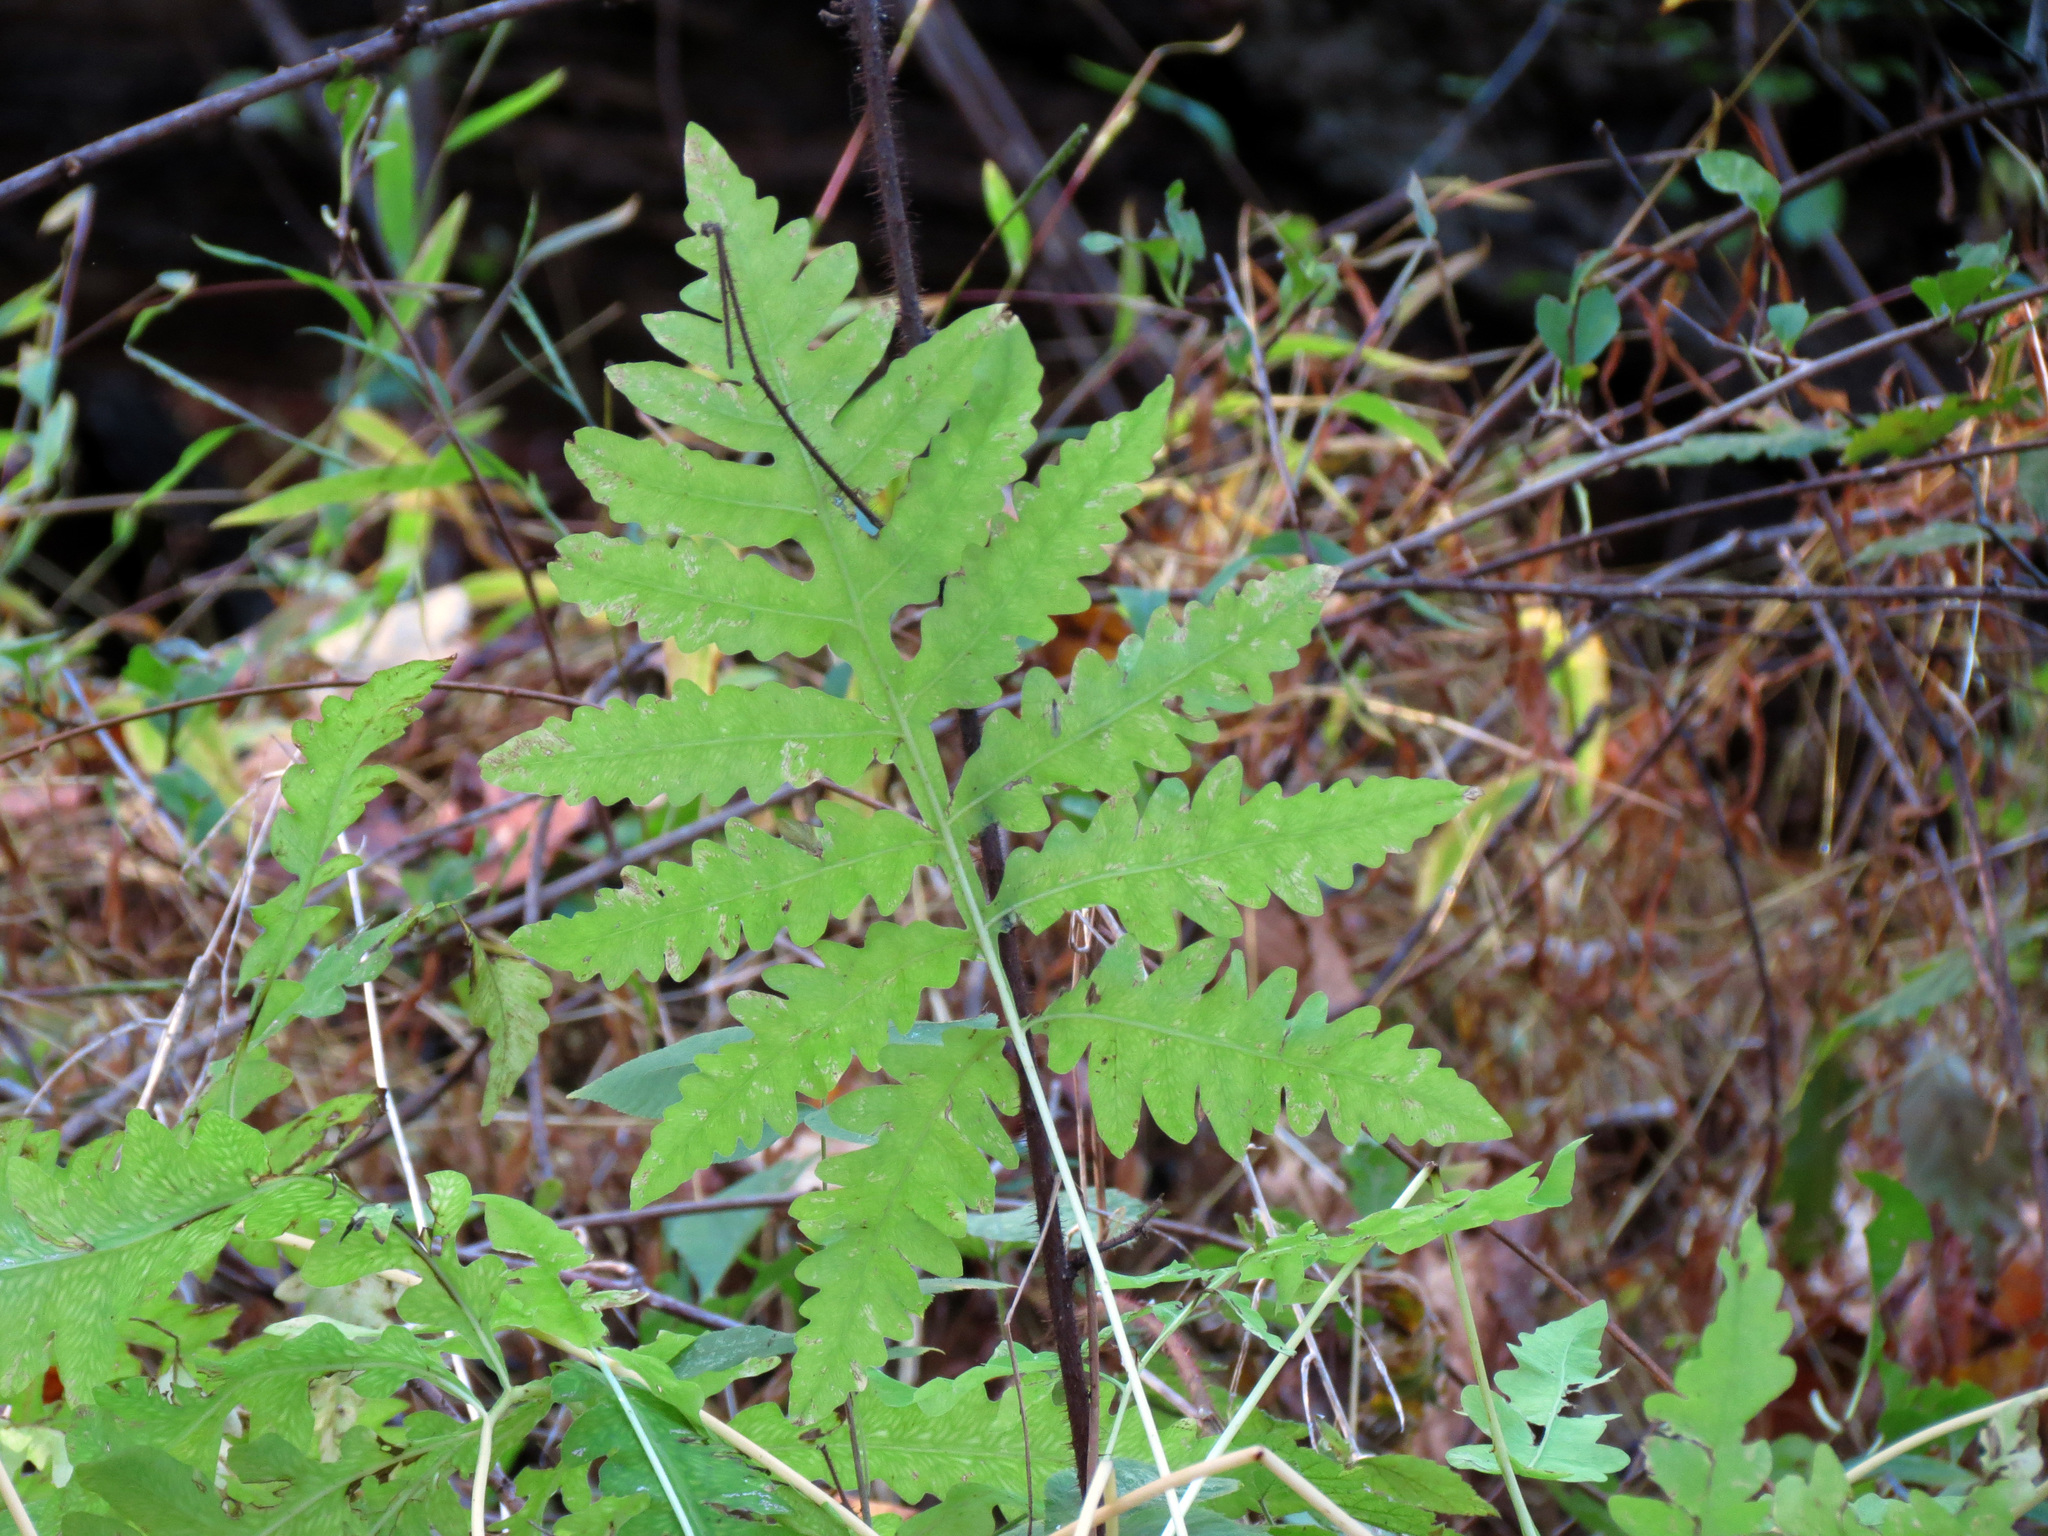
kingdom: Plantae
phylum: Tracheophyta
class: Polypodiopsida
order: Polypodiales
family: Onocleaceae
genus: Onoclea
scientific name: Onoclea sensibilis
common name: Sensitive fern
